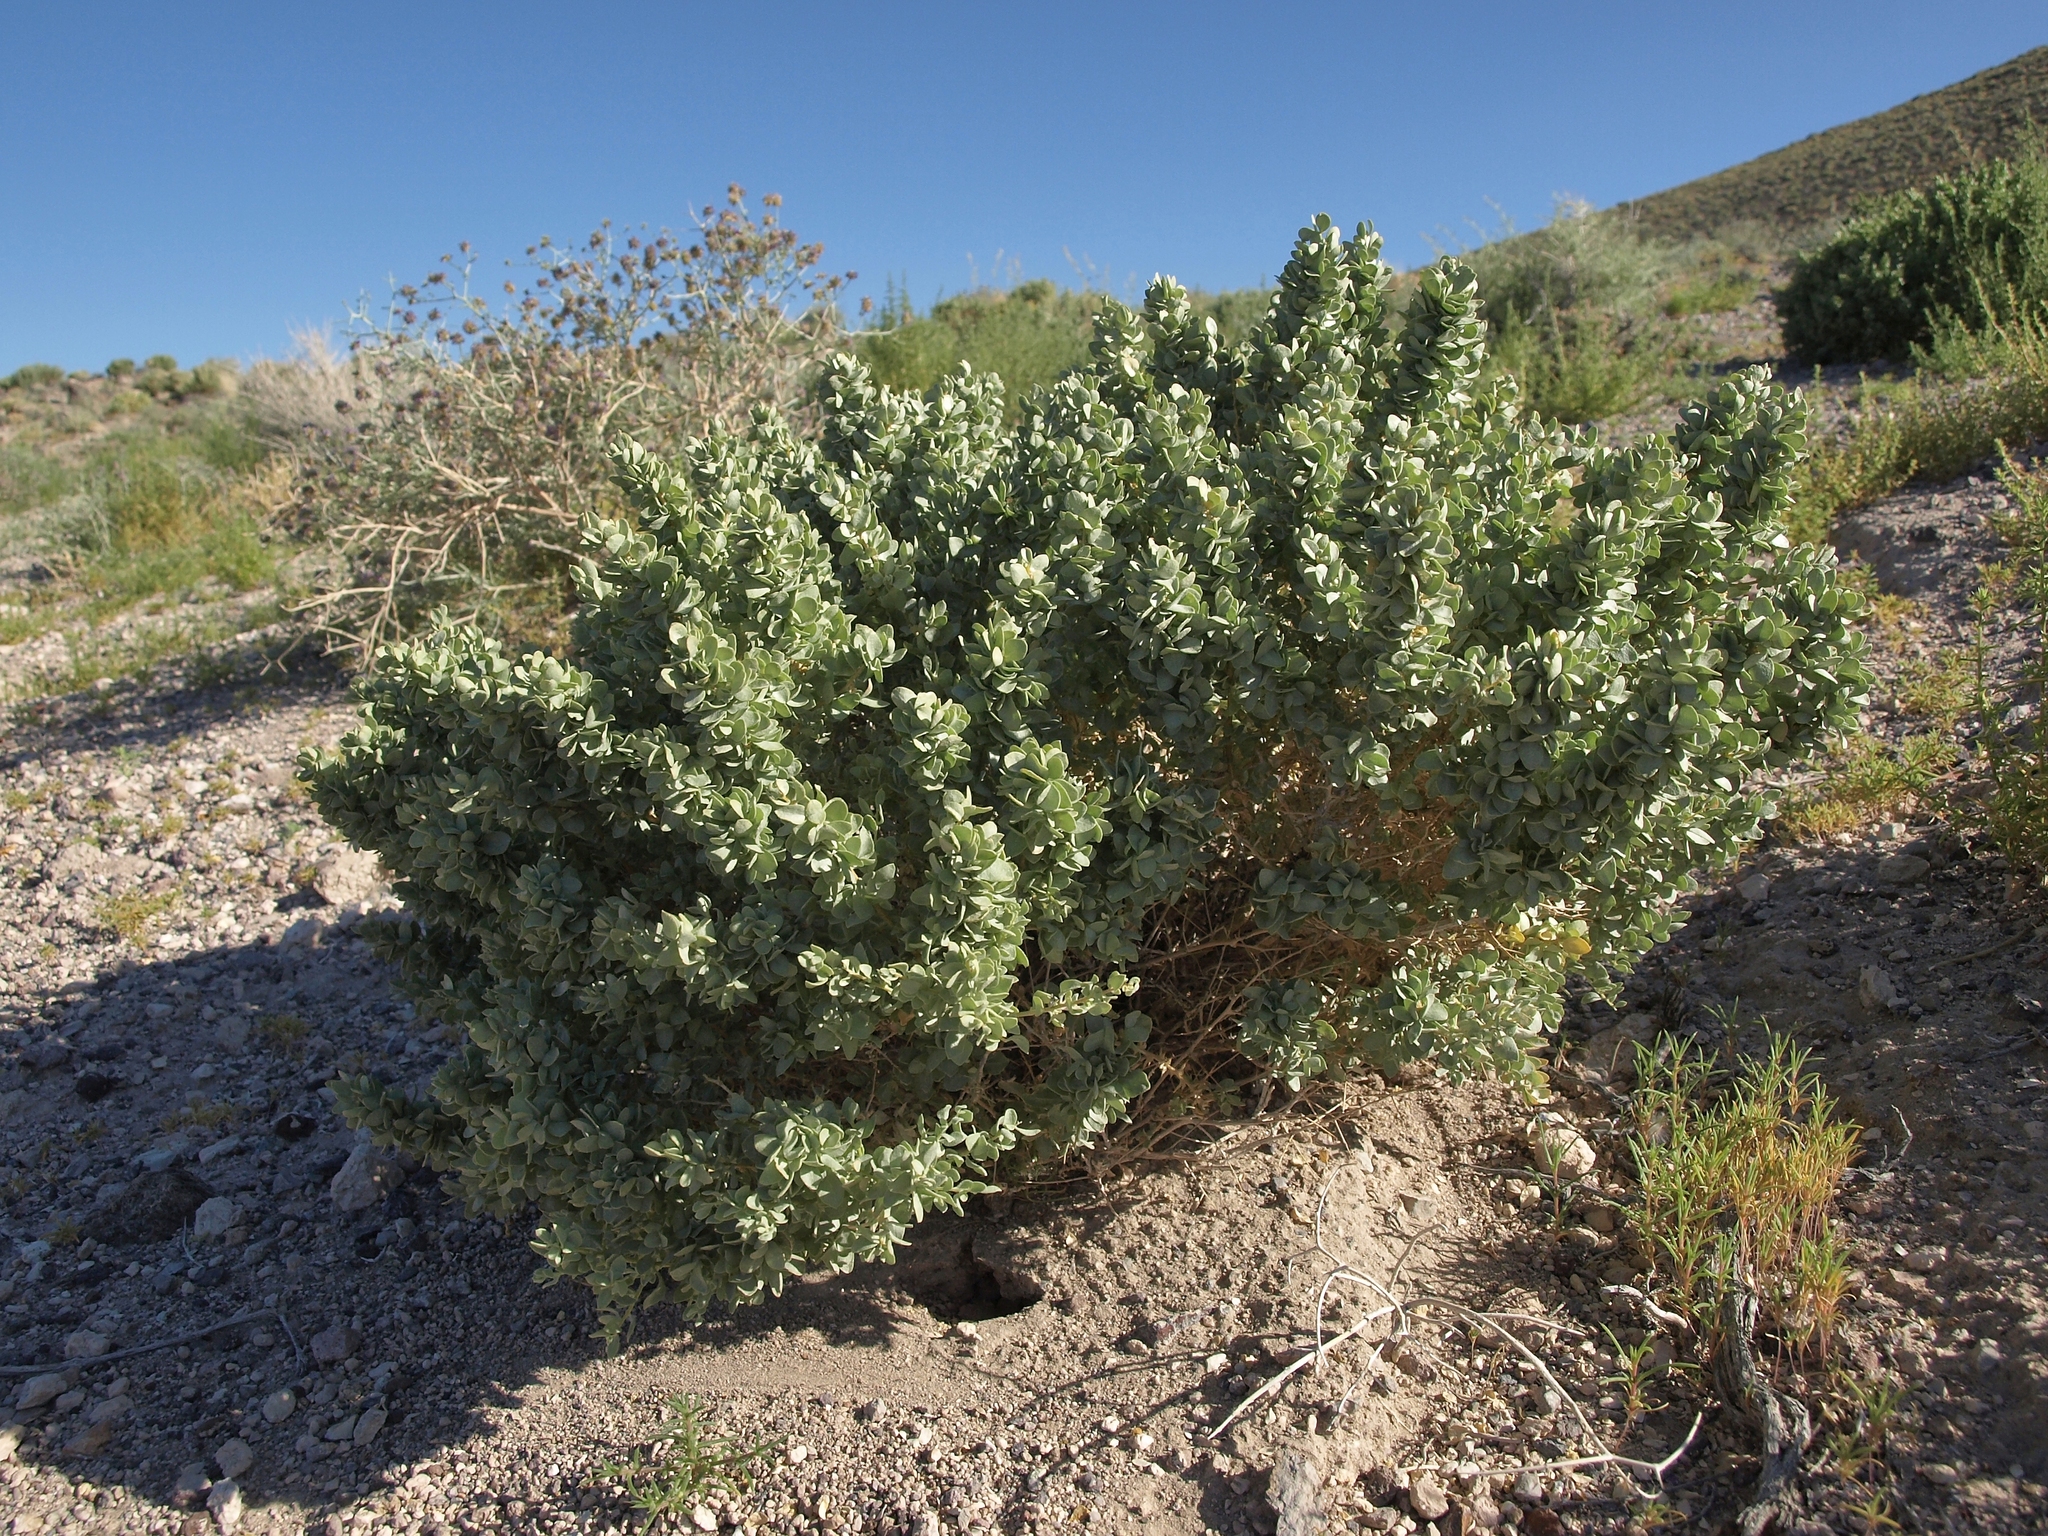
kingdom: Plantae
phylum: Tracheophyta
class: Magnoliopsida
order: Caryophyllales
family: Amaranthaceae
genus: Atriplex
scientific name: Atriplex confertifolia
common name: Shadscale
